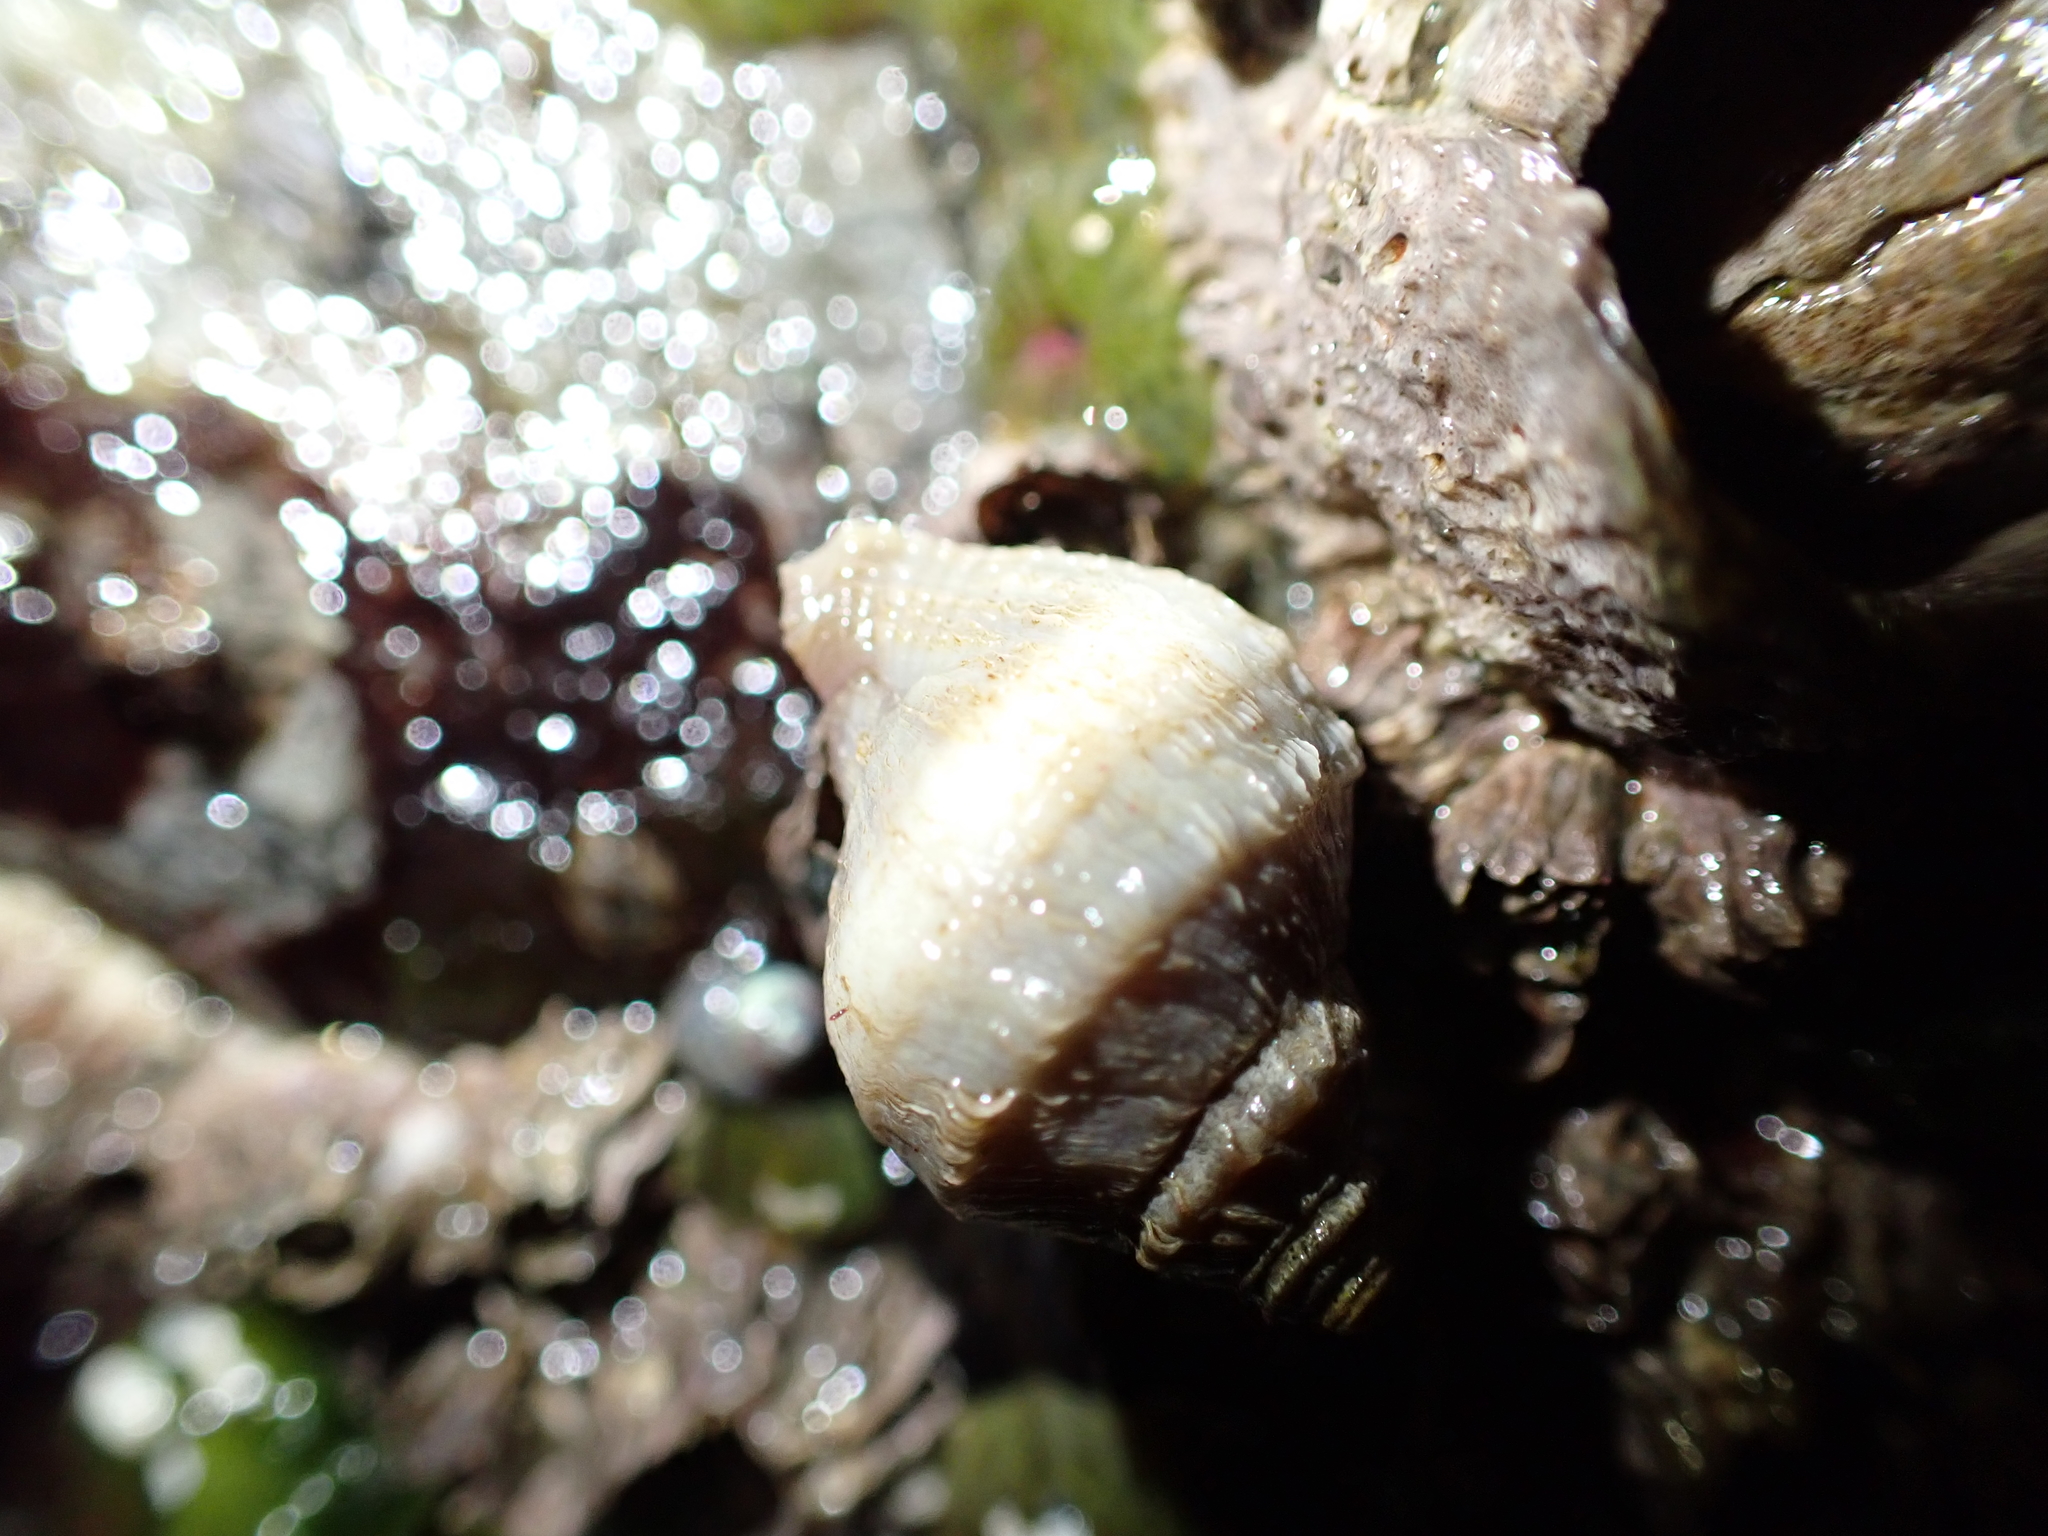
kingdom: Animalia
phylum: Mollusca
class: Gastropoda
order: Neogastropoda
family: Muricidae
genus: Nucella
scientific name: Nucella lamellosa
